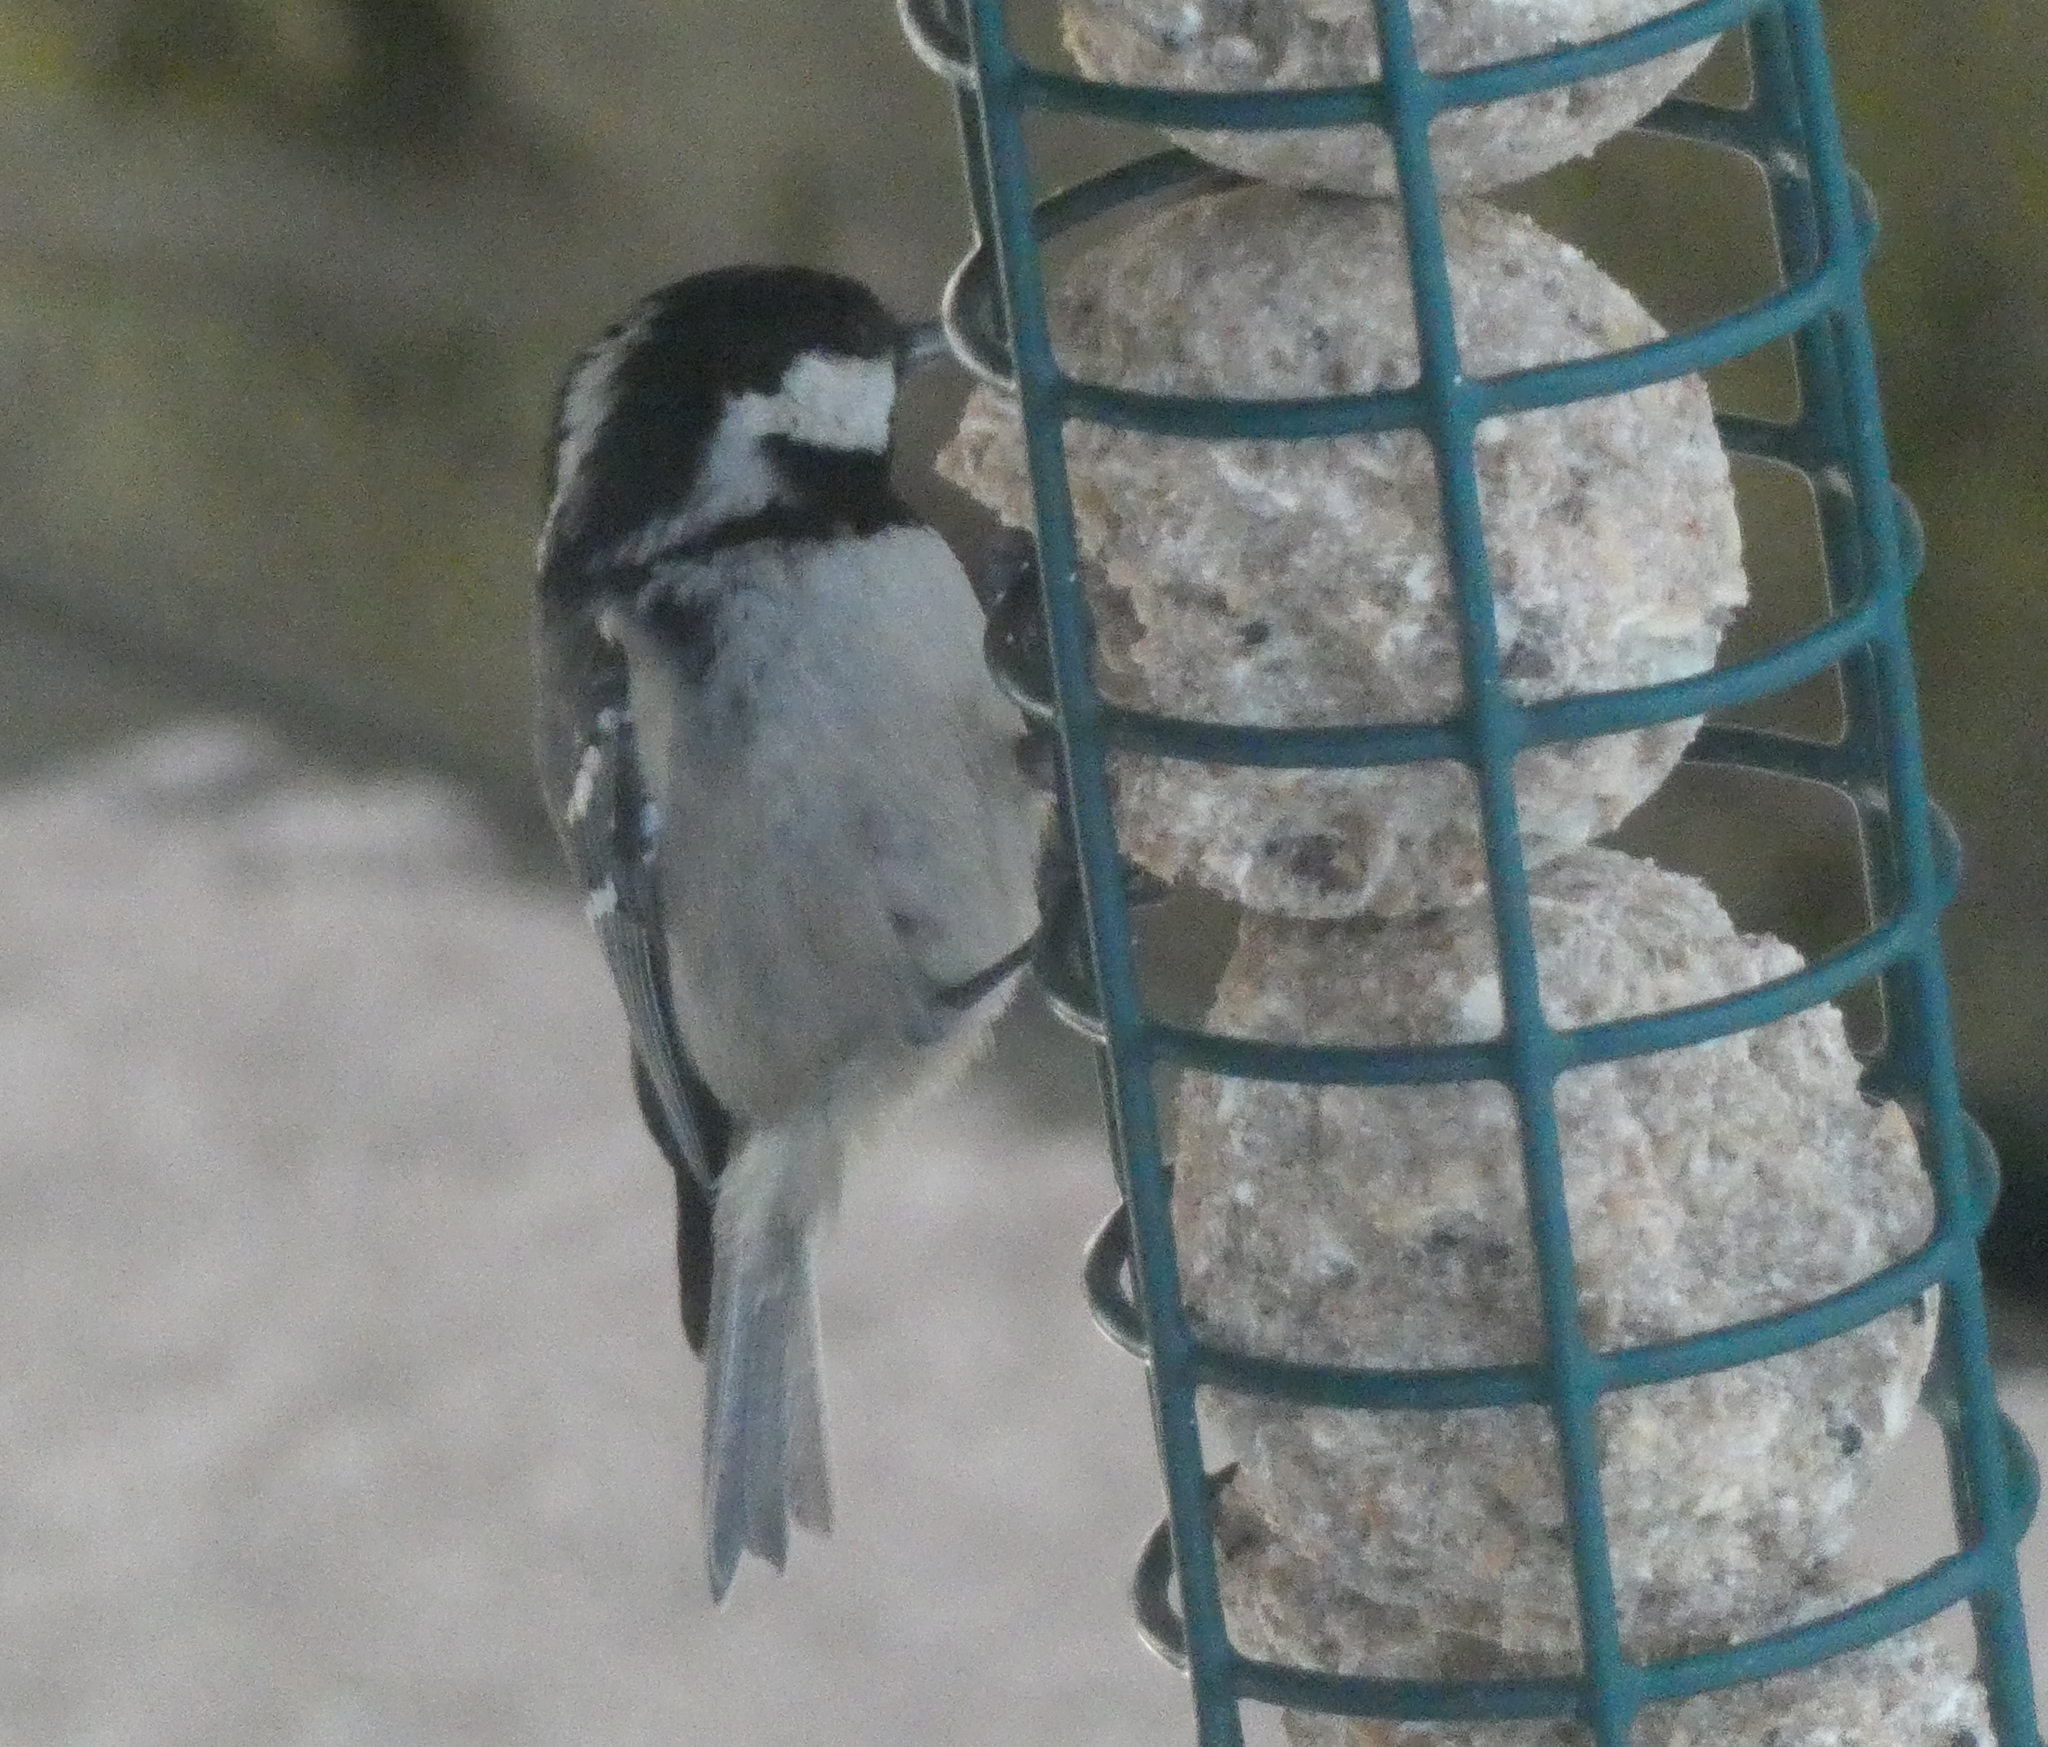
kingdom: Animalia
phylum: Chordata
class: Aves
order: Passeriformes
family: Paridae
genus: Periparus
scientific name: Periparus ater
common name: Coal tit
